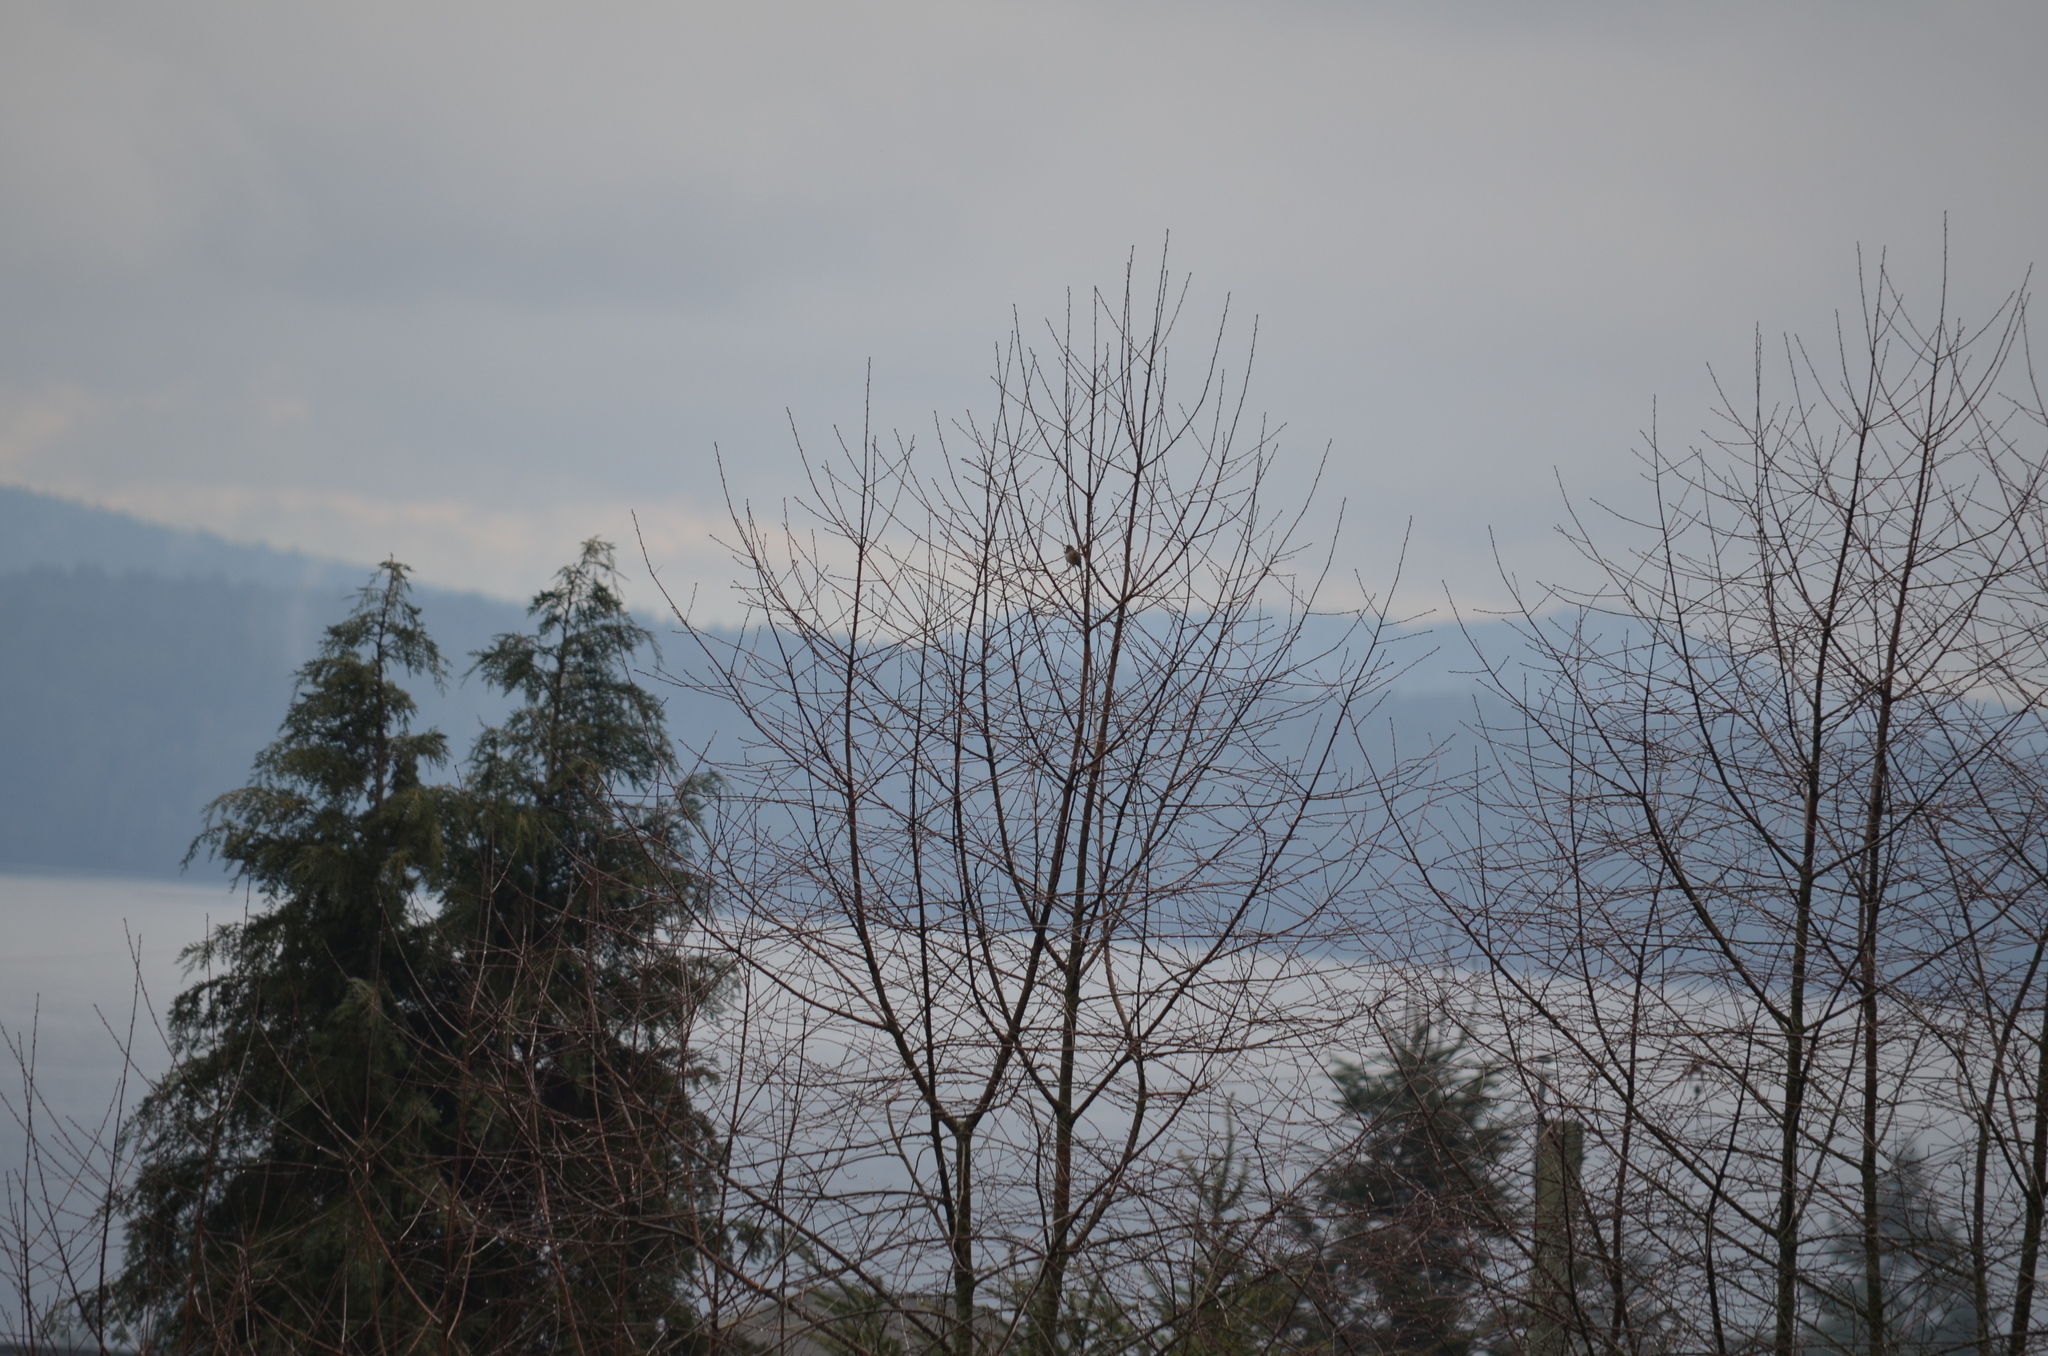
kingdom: Animalia
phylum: Chordata
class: Aves
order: Passeriformes
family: Passerellidae
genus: Junco
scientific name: Junco hyemalis
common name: Dark-eyed junco
